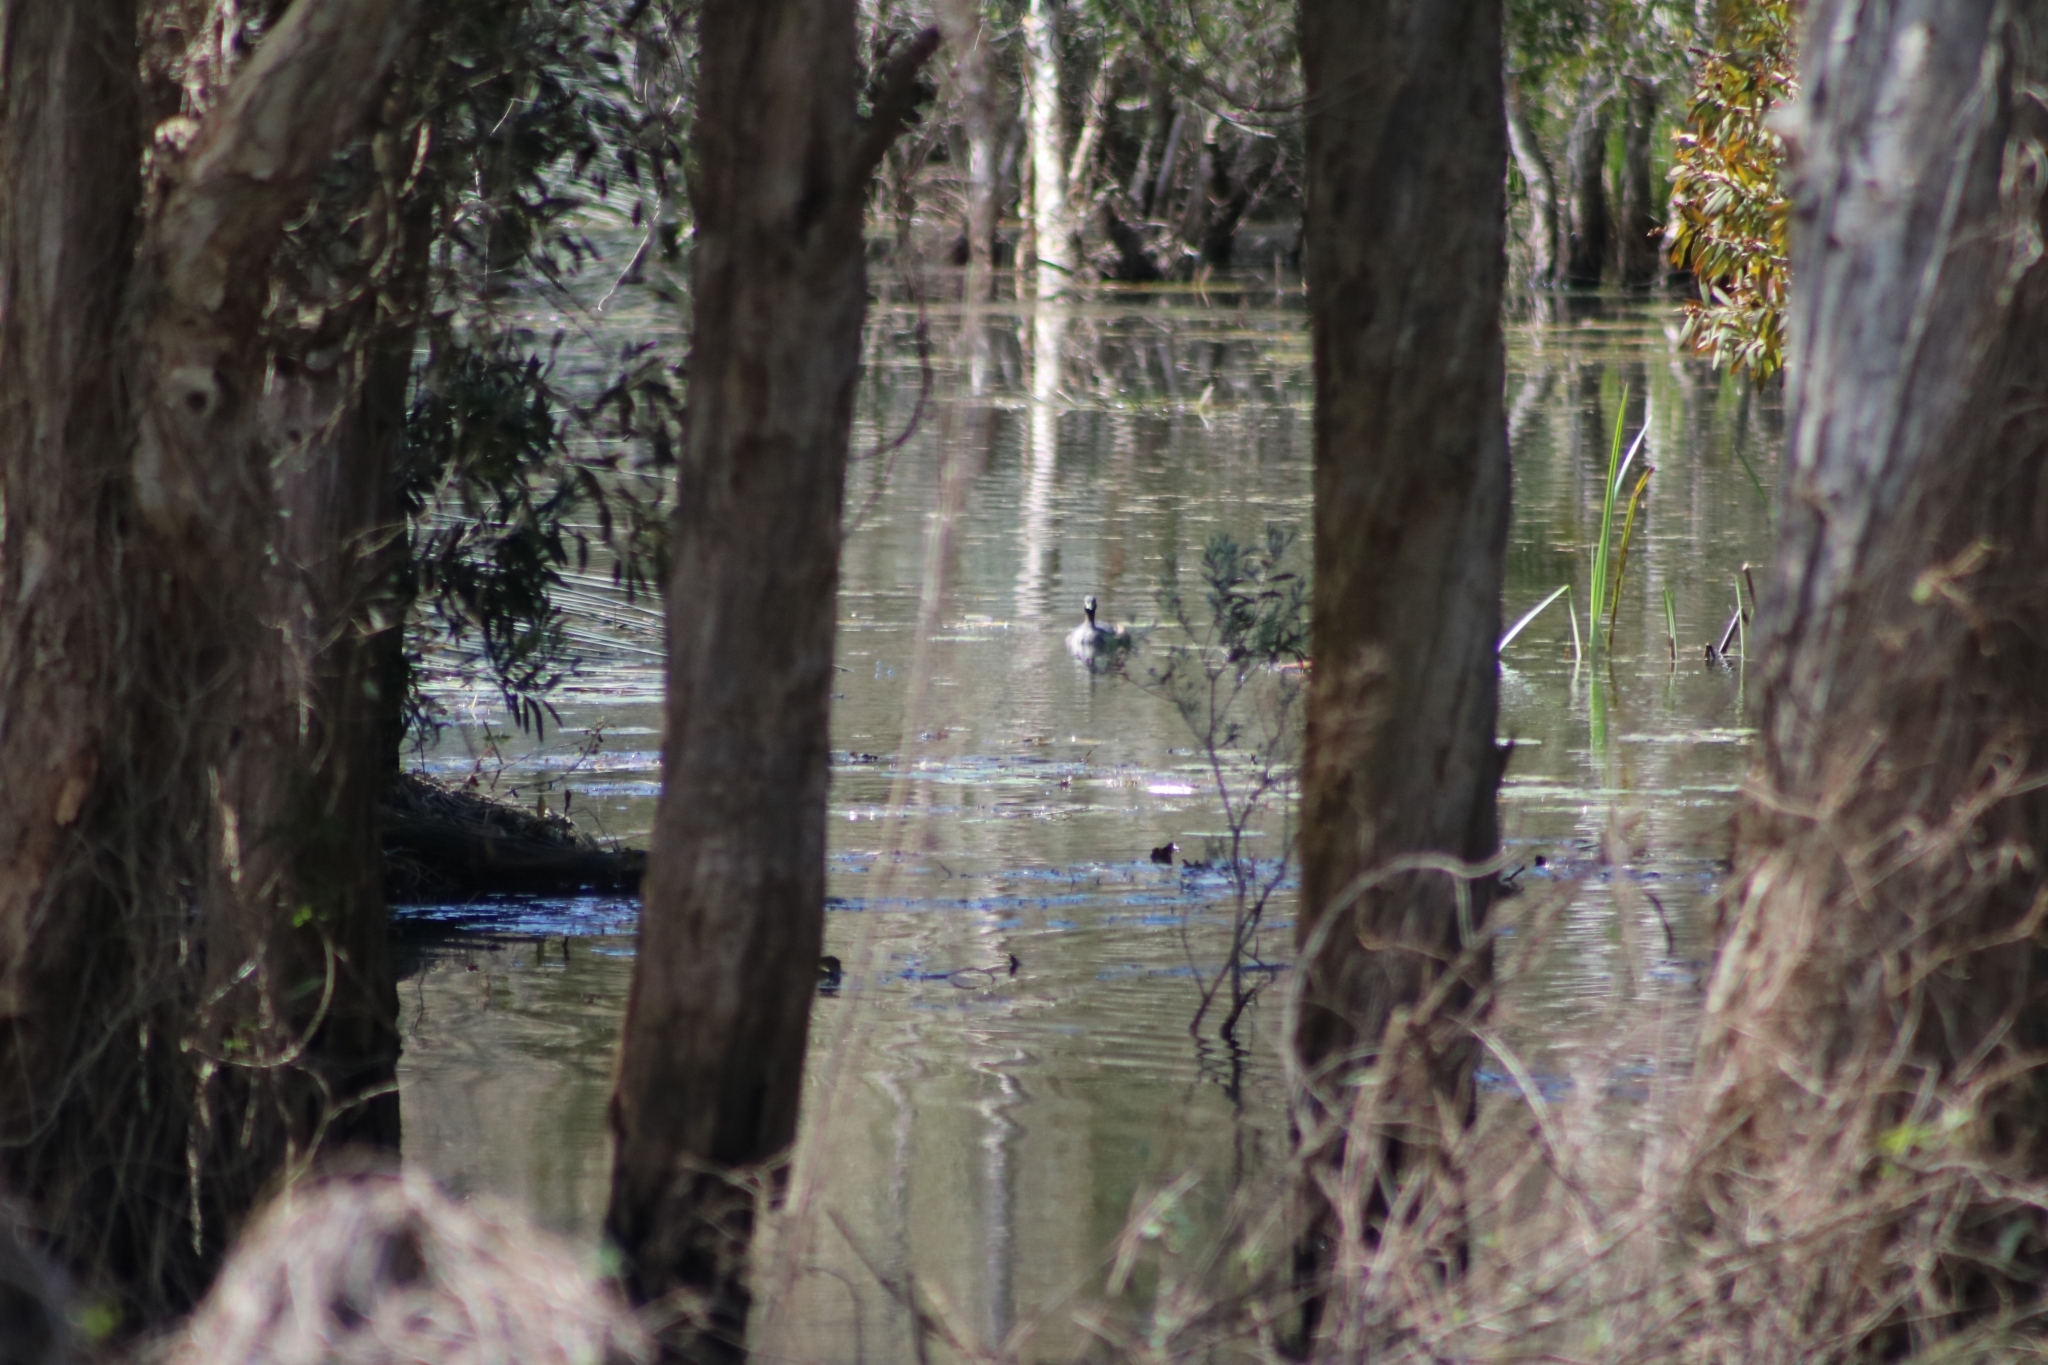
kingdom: Animalia
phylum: Chordata
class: Aves
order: Podicipediformes
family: Podicipedidae
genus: Tachybaptus
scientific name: Tachybaptus novaehollandiae
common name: Australasian grebe
